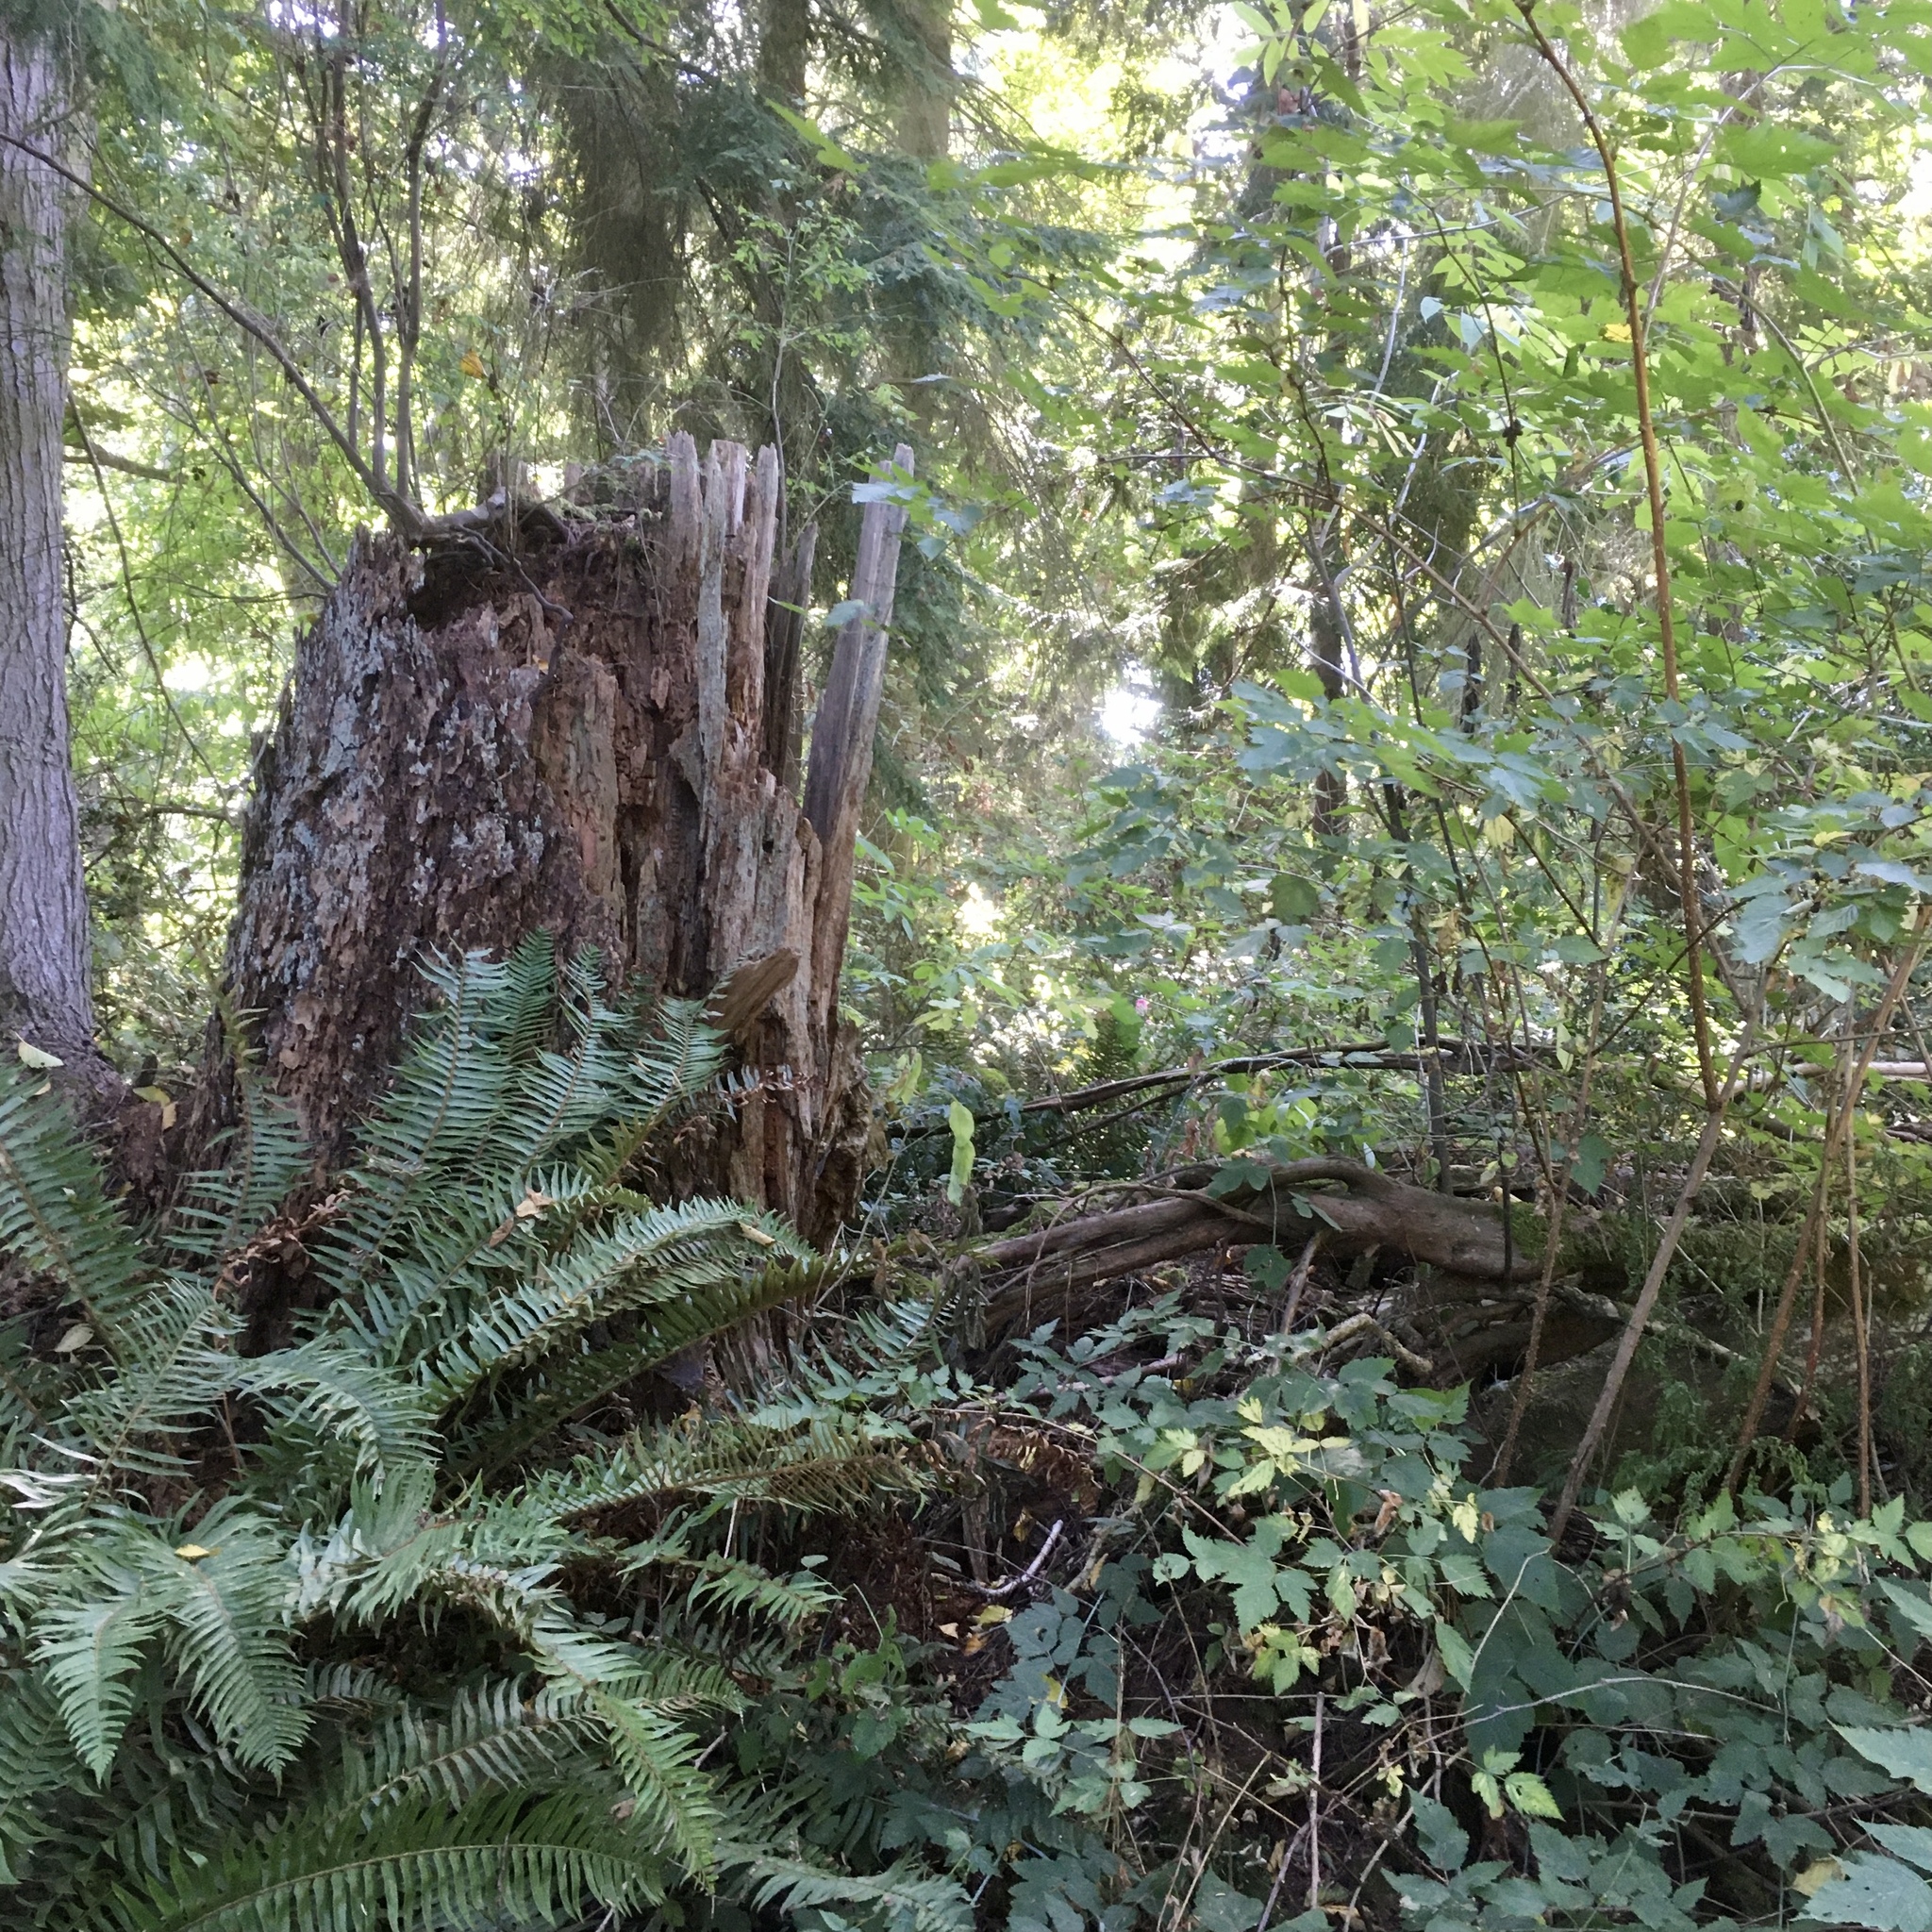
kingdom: Plantae
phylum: Tracheophyta
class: Pinopsida
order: Pinales
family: Cupressaceae
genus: Thuja
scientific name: Thuja plicata
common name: Western red-cedar
